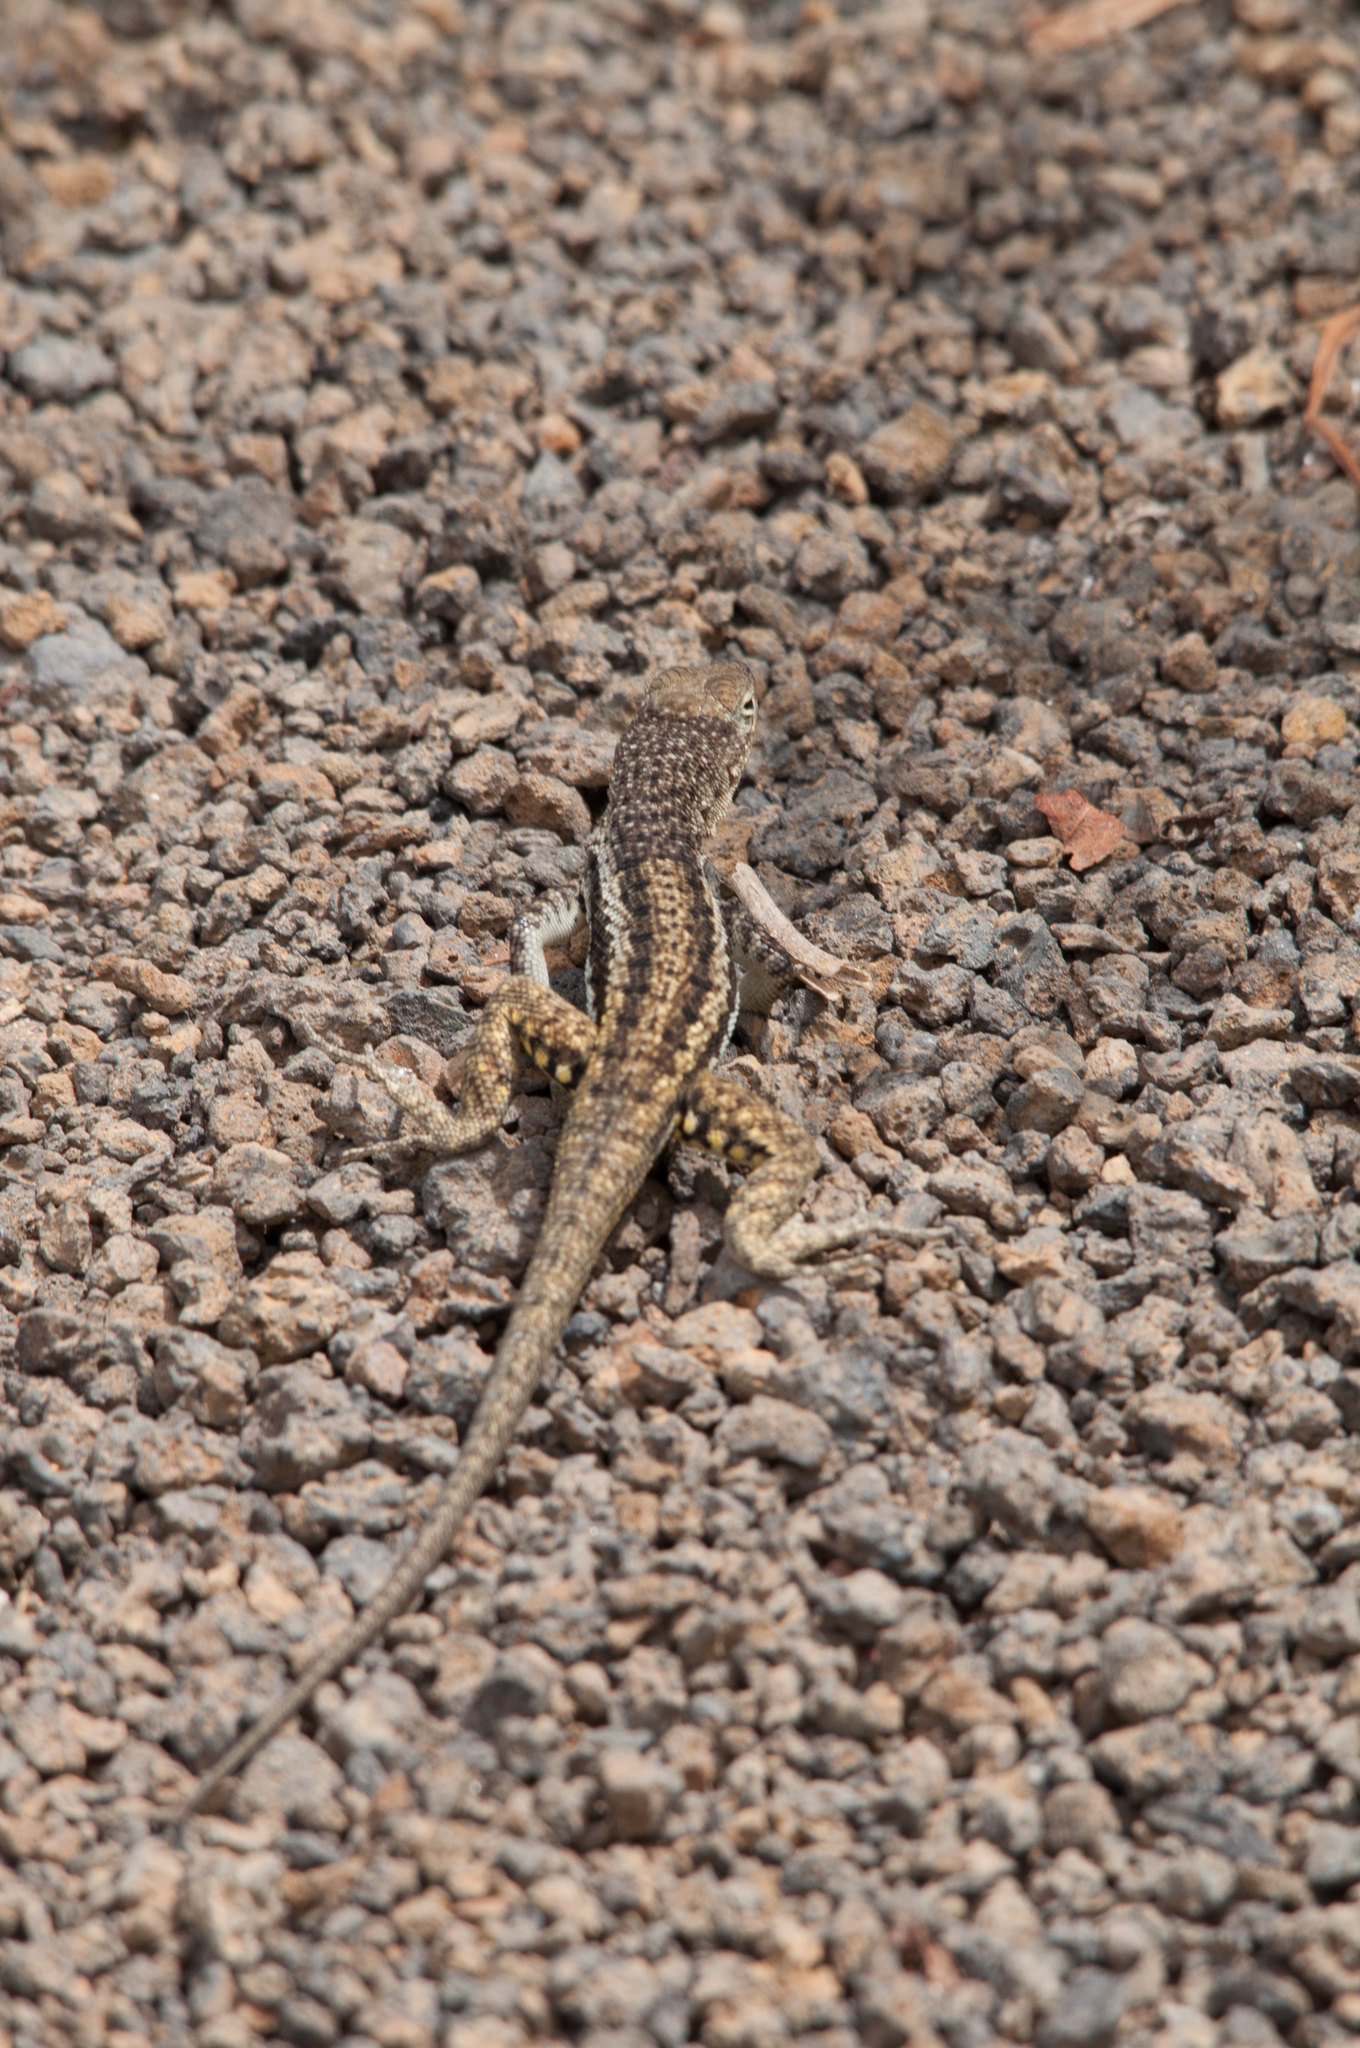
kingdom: Animalia
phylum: Chordata
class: Squamata
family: Tropiduridae
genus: Microlophus
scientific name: Microlophus grayii
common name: Floreana lava lizard
